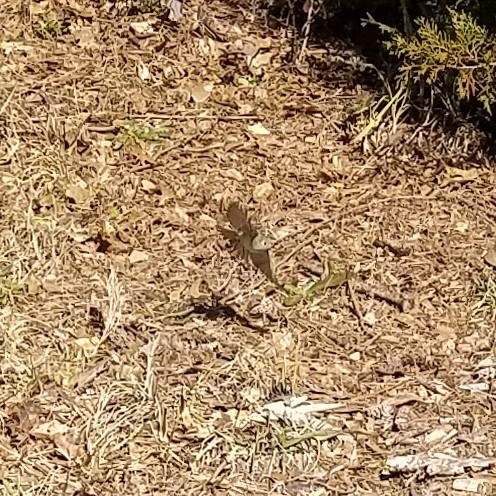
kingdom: Animalia
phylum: Chordata
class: Aves
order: Passeriformes
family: Regulidae
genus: Regulus
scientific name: Regulus calendula
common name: Ruby-crowned kinglet
